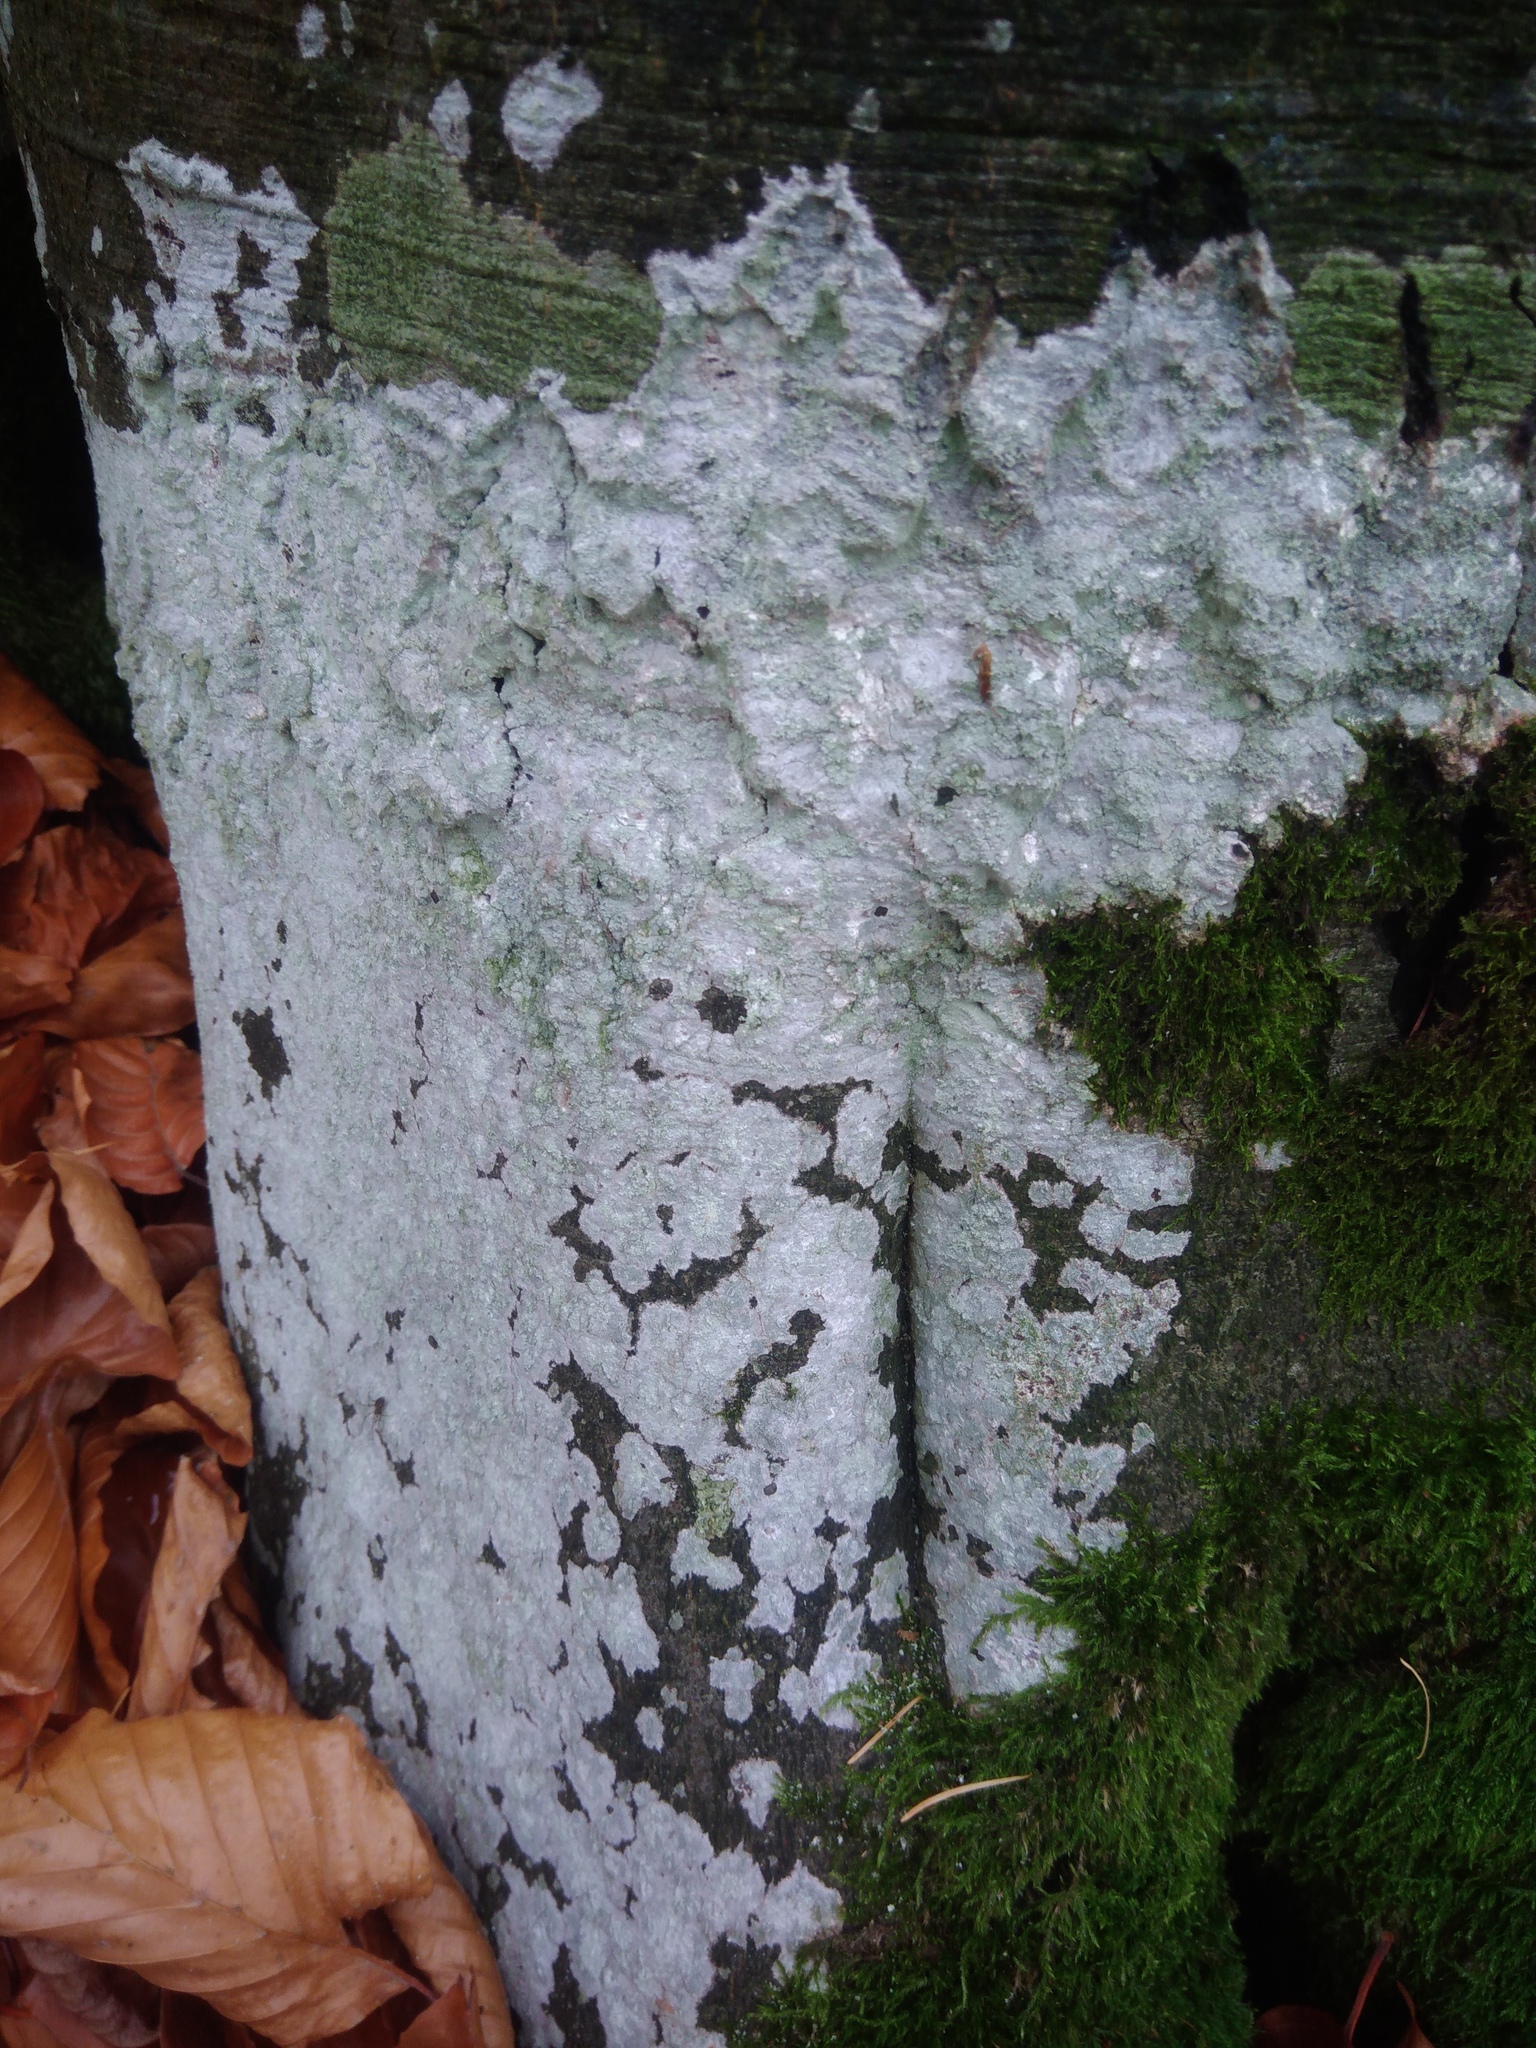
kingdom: Fungi
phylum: Ascomycota
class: Lecanoromycetes
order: Ostropales
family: Phlyctidaceae
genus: Phlyctis
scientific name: Phlyctis argena
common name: Whitewash lichen
